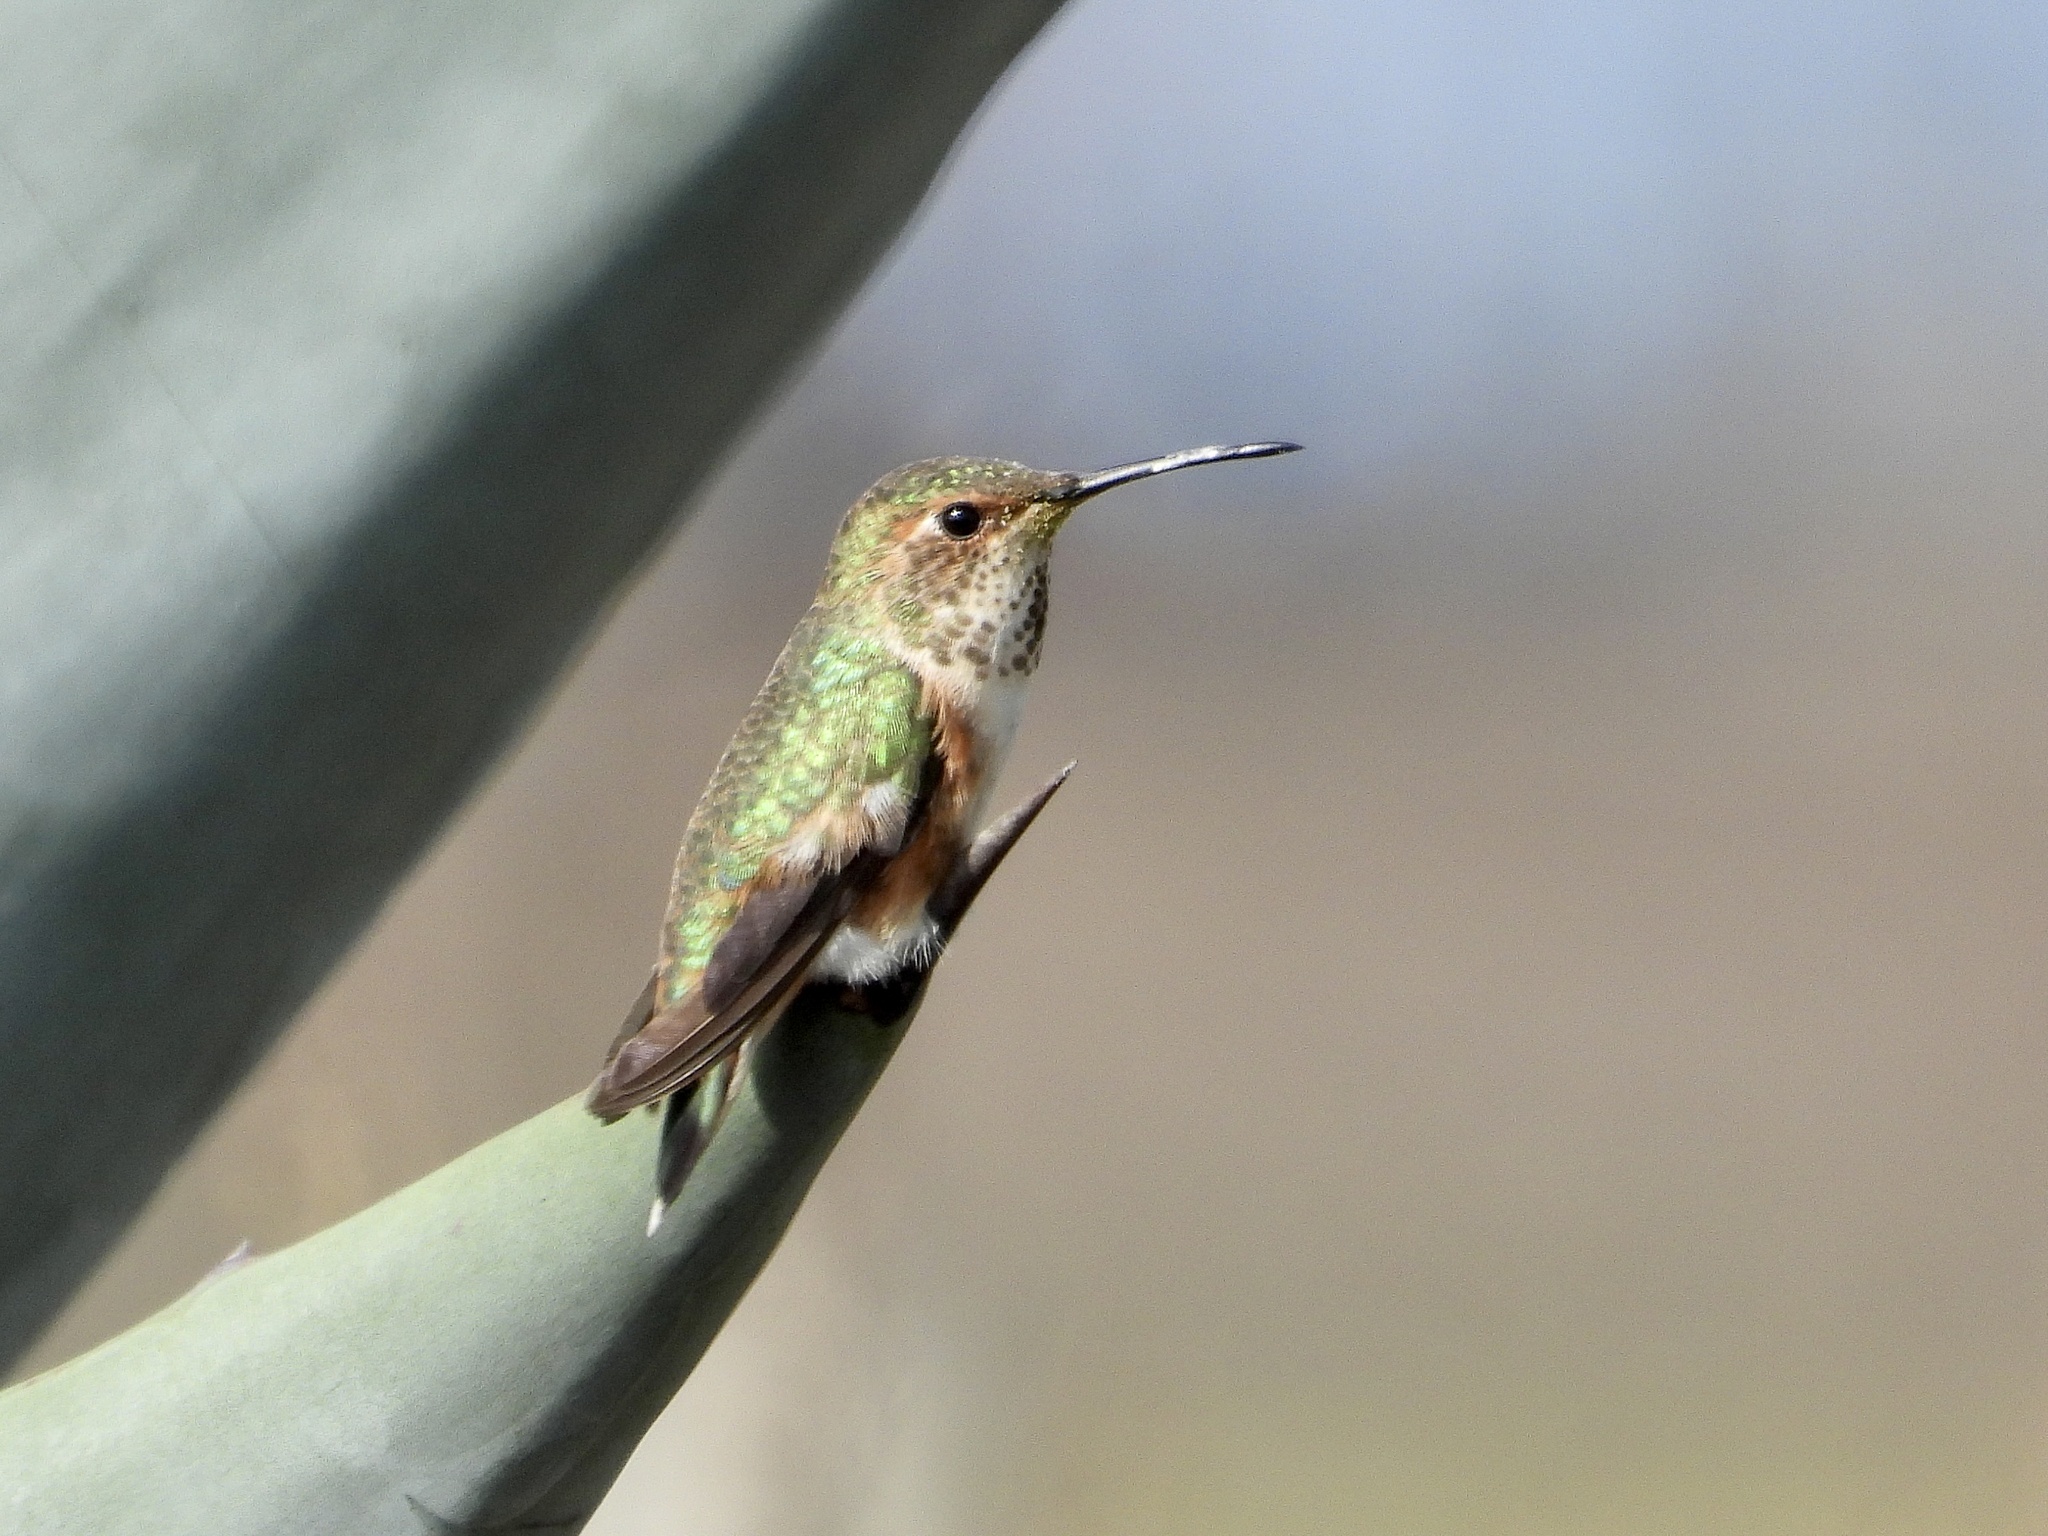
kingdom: Animalia
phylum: Chordata
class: Aves
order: Apodiformes
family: Trochilidae
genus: Selasphorus
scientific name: Selasphorus sasin
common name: Allen's hummingbird
